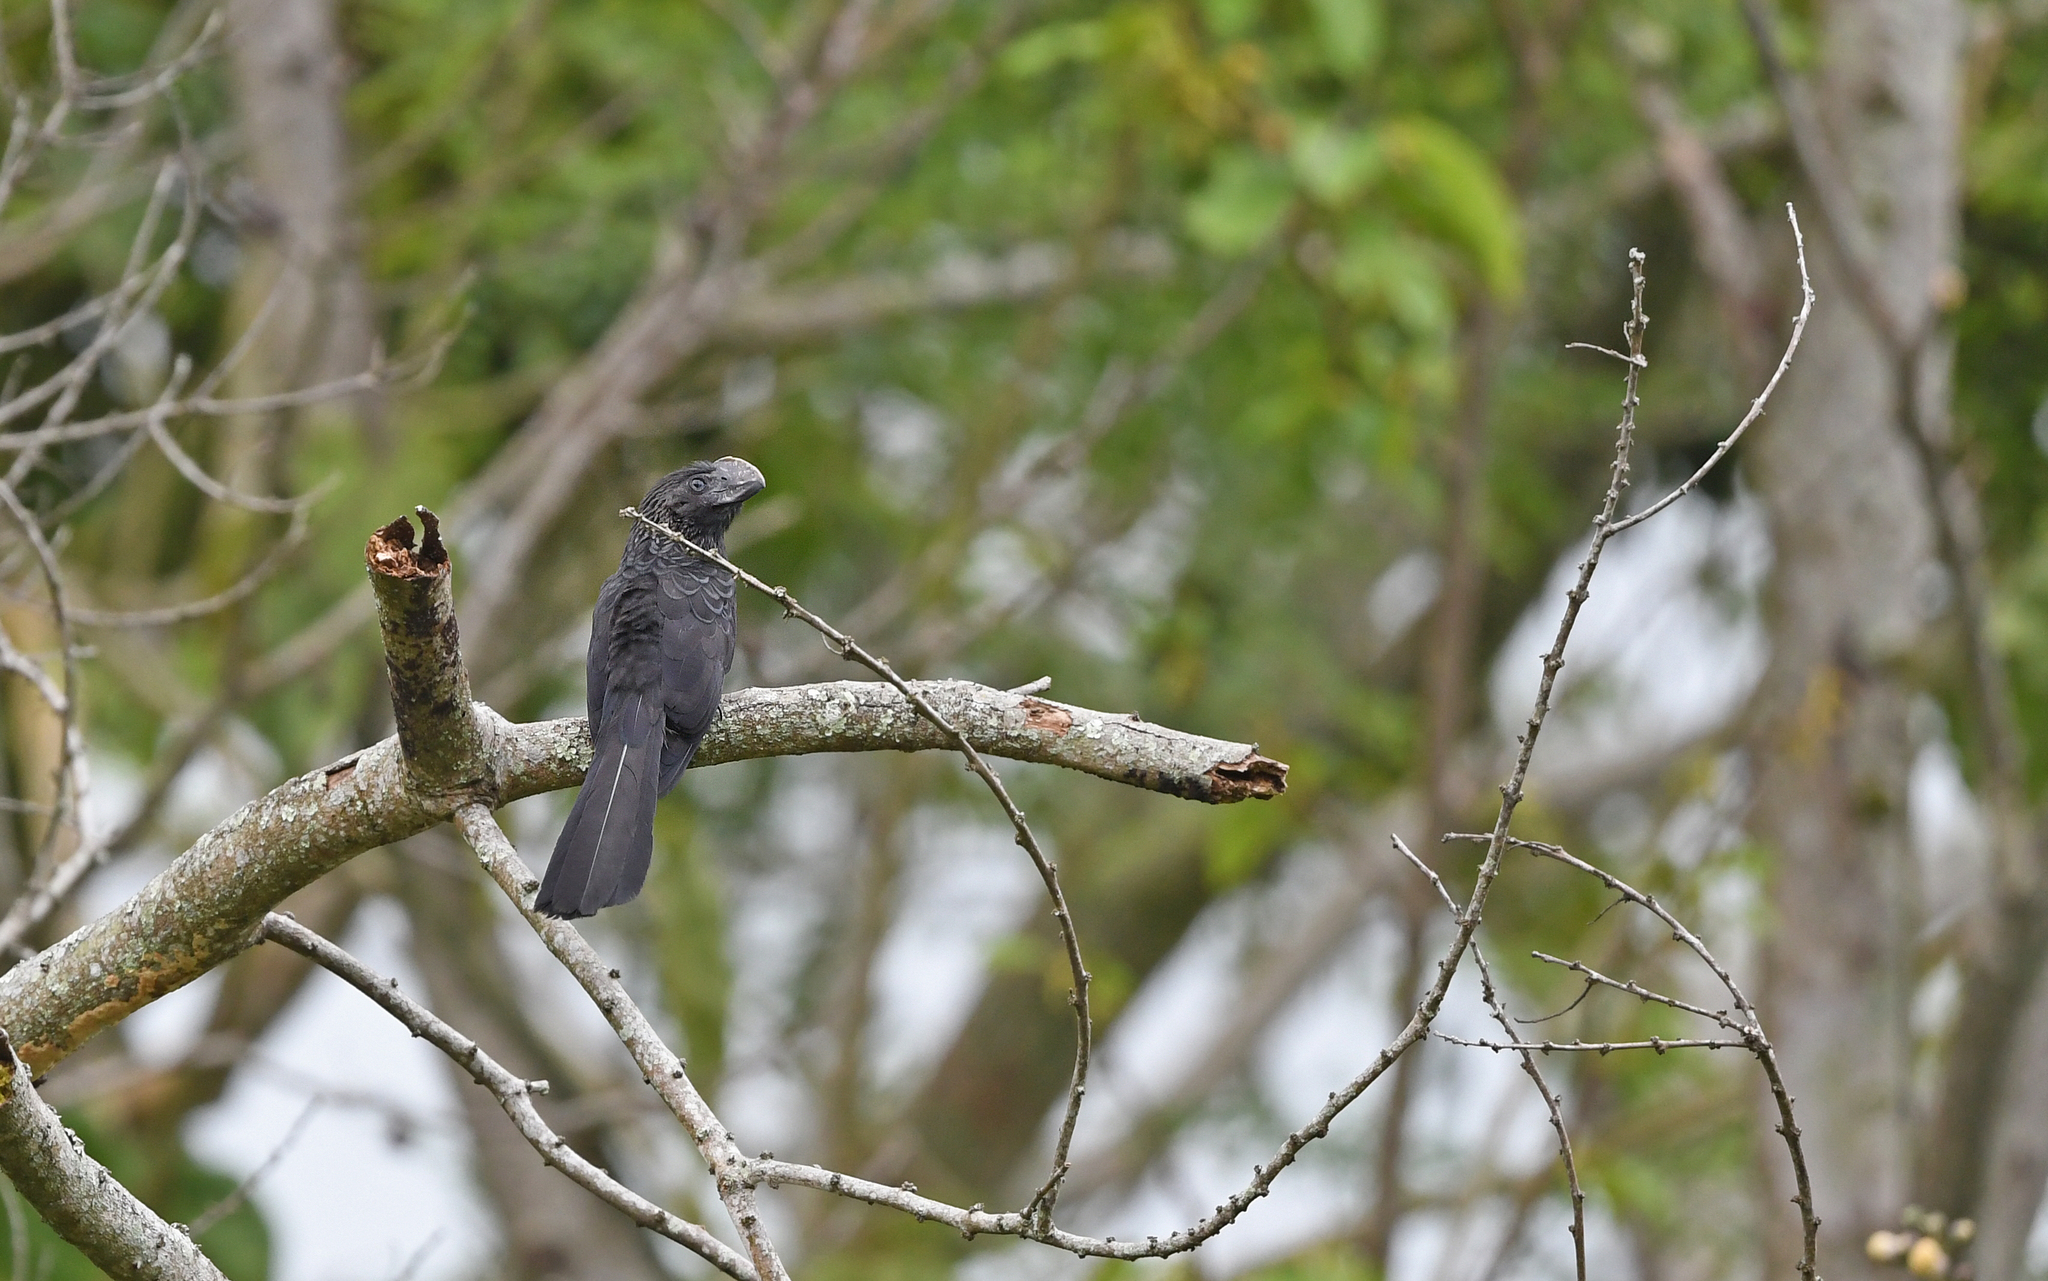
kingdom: Animalia
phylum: Chordata
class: Aves
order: Cuculiformes
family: Cuculidae
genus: Crotophaga
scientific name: Crotophaga ani
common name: Smooth-billed ani
